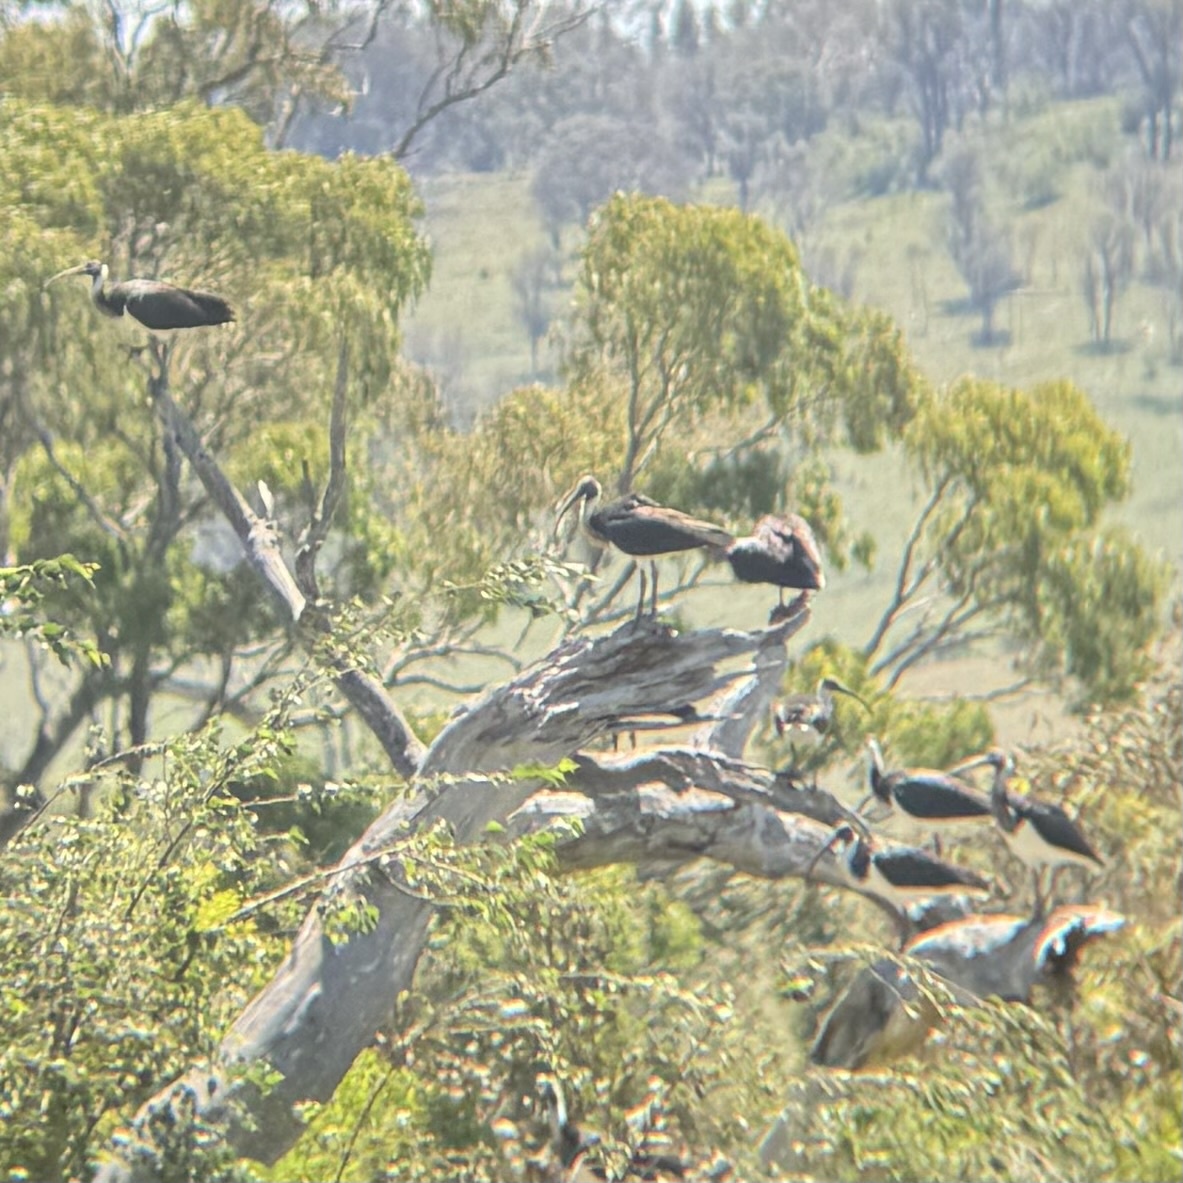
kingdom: Animalia
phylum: Chordata
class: Aves
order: Pelecaniformes
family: Threskiornithidae
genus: Threskiornis
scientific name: Threskiornis spinicollis
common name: Straw-necked ibis
